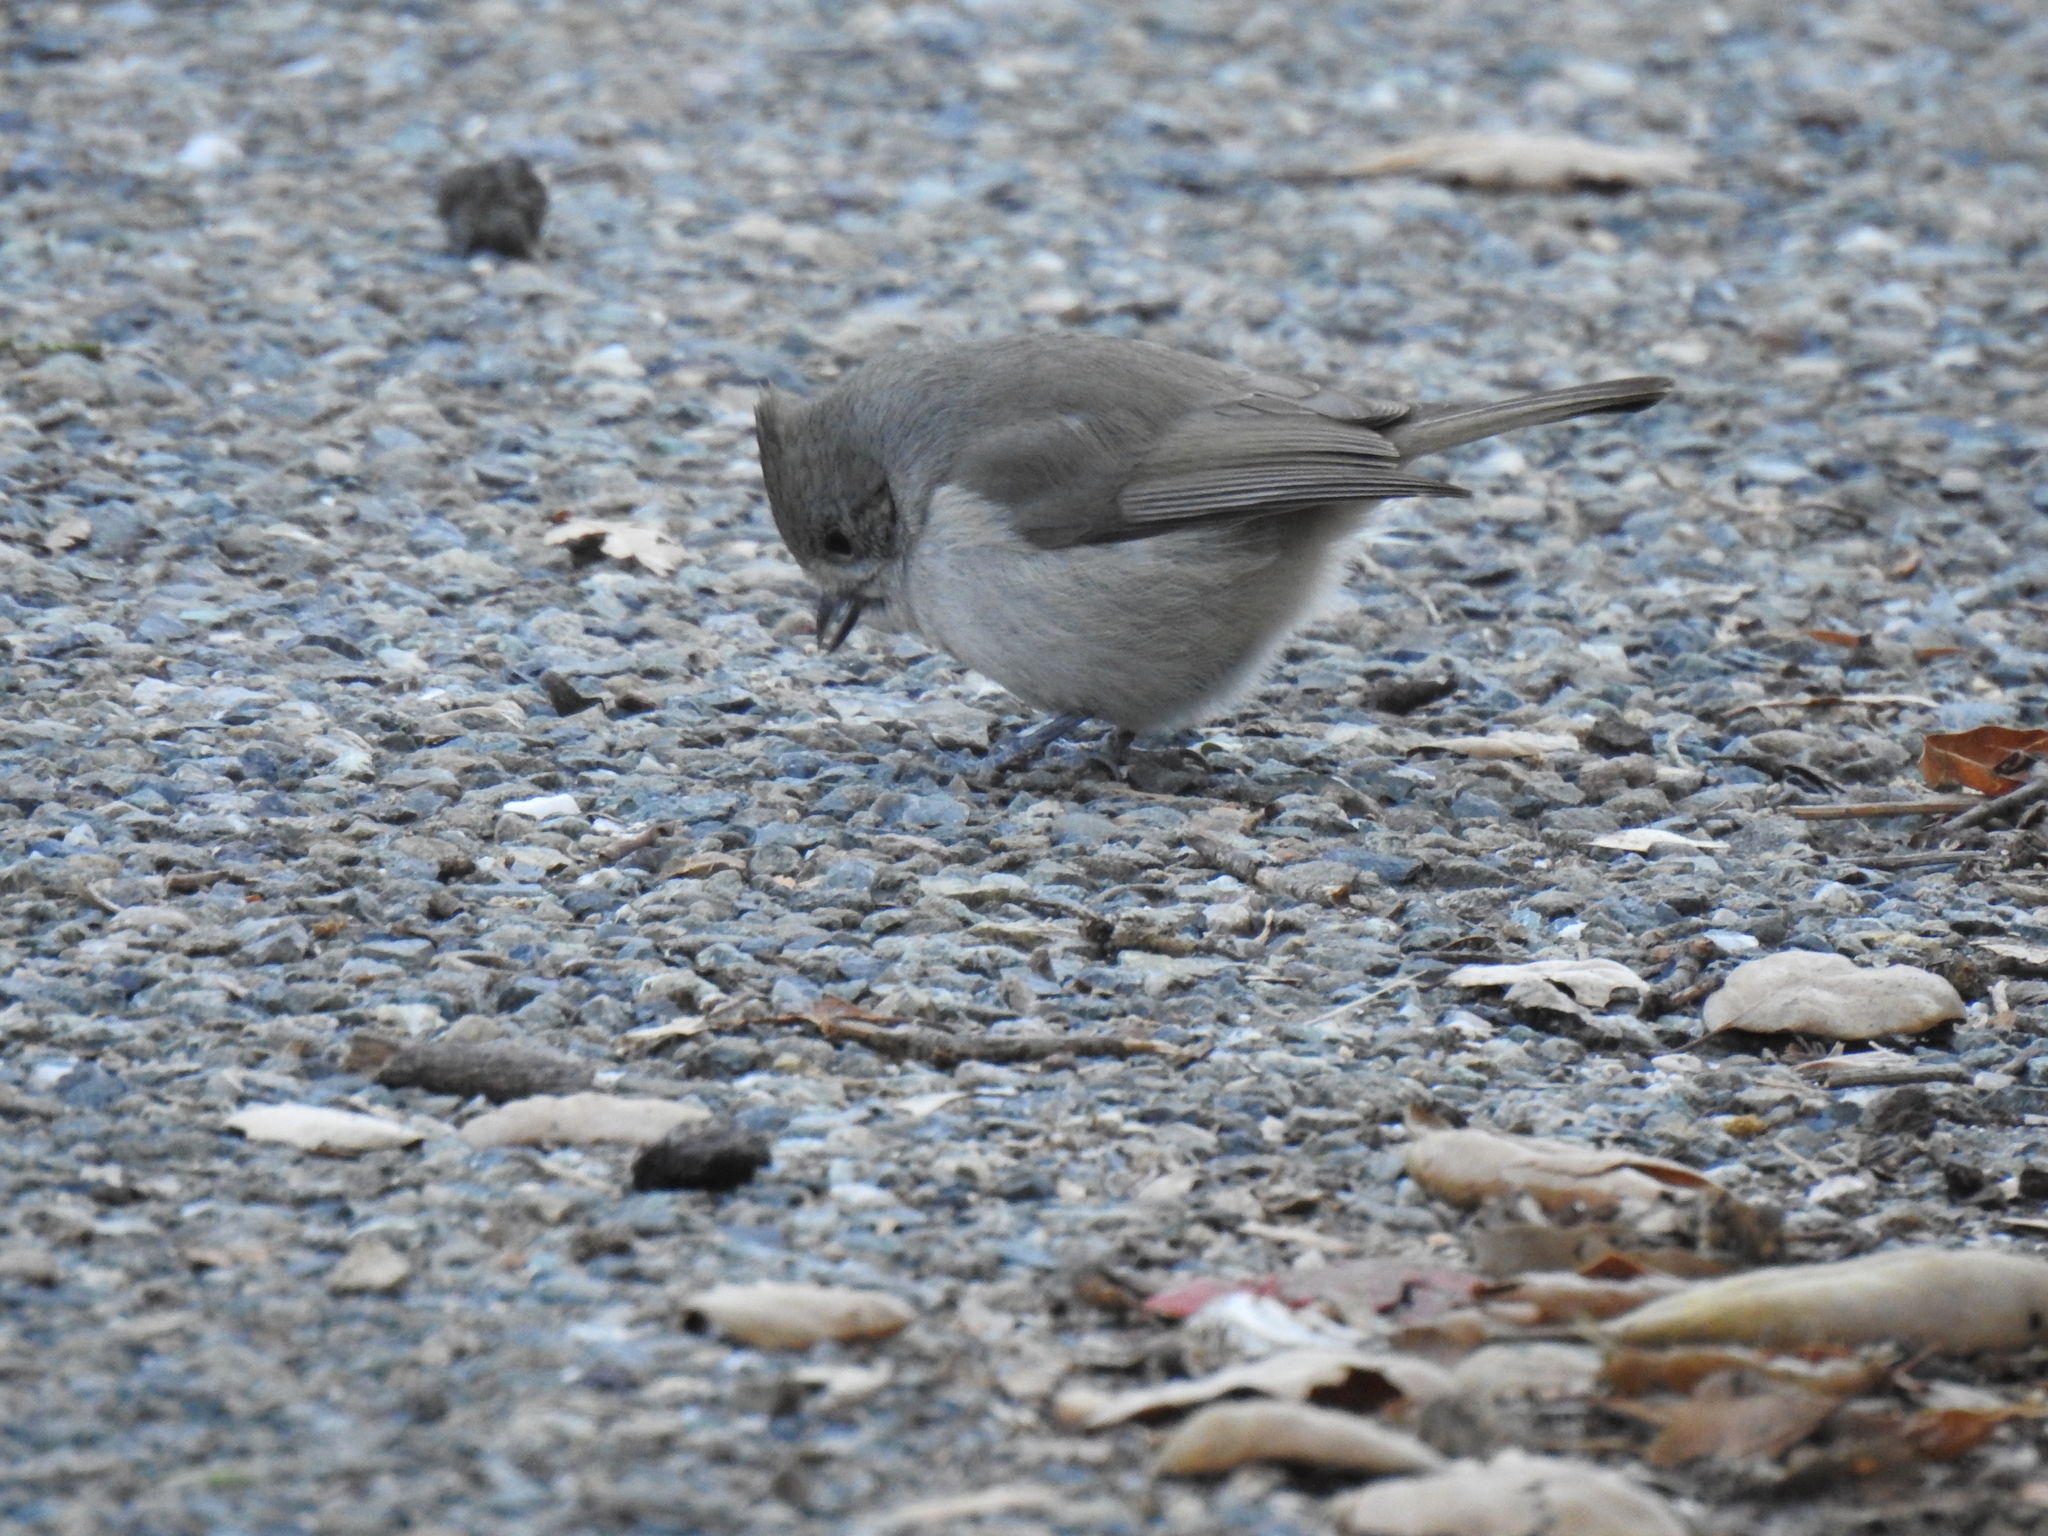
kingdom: Animalia
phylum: Chordata
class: Aves
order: Passeriformes
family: Paridae
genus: Baeolophus
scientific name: Baeolophus inornatus
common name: Oak titmouse
